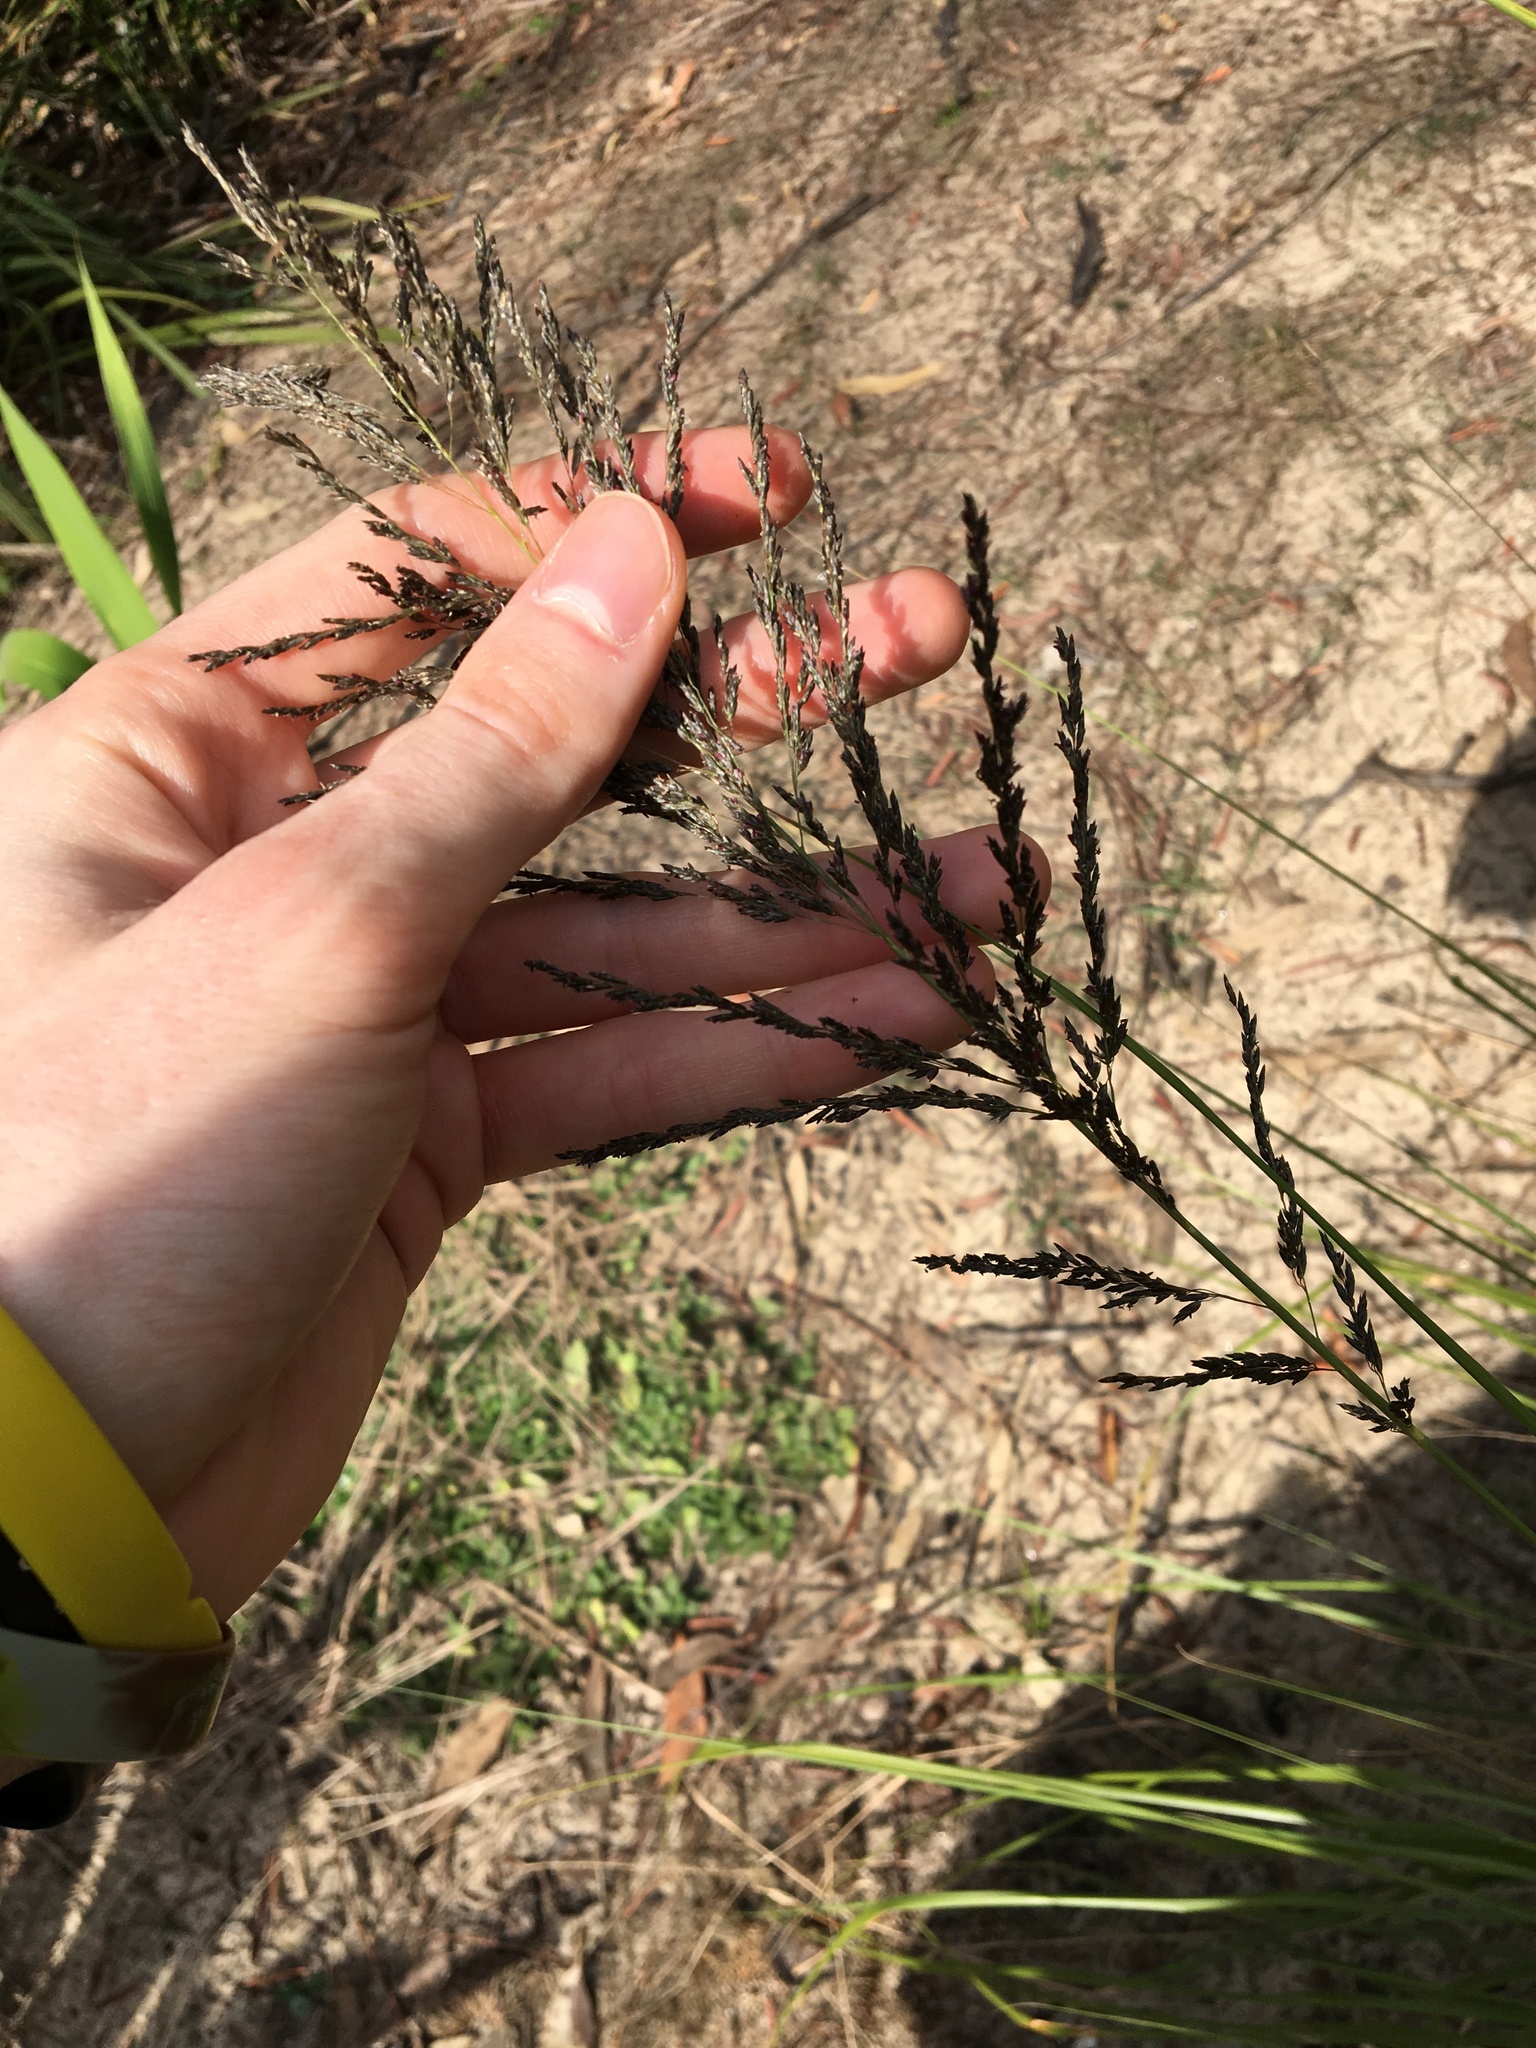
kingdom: Plantae
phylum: Tracheophyta
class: Liliopsida
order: Poales
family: Poaceae
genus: Eragrostis
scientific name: Eragrostis curvula
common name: African love-grass
